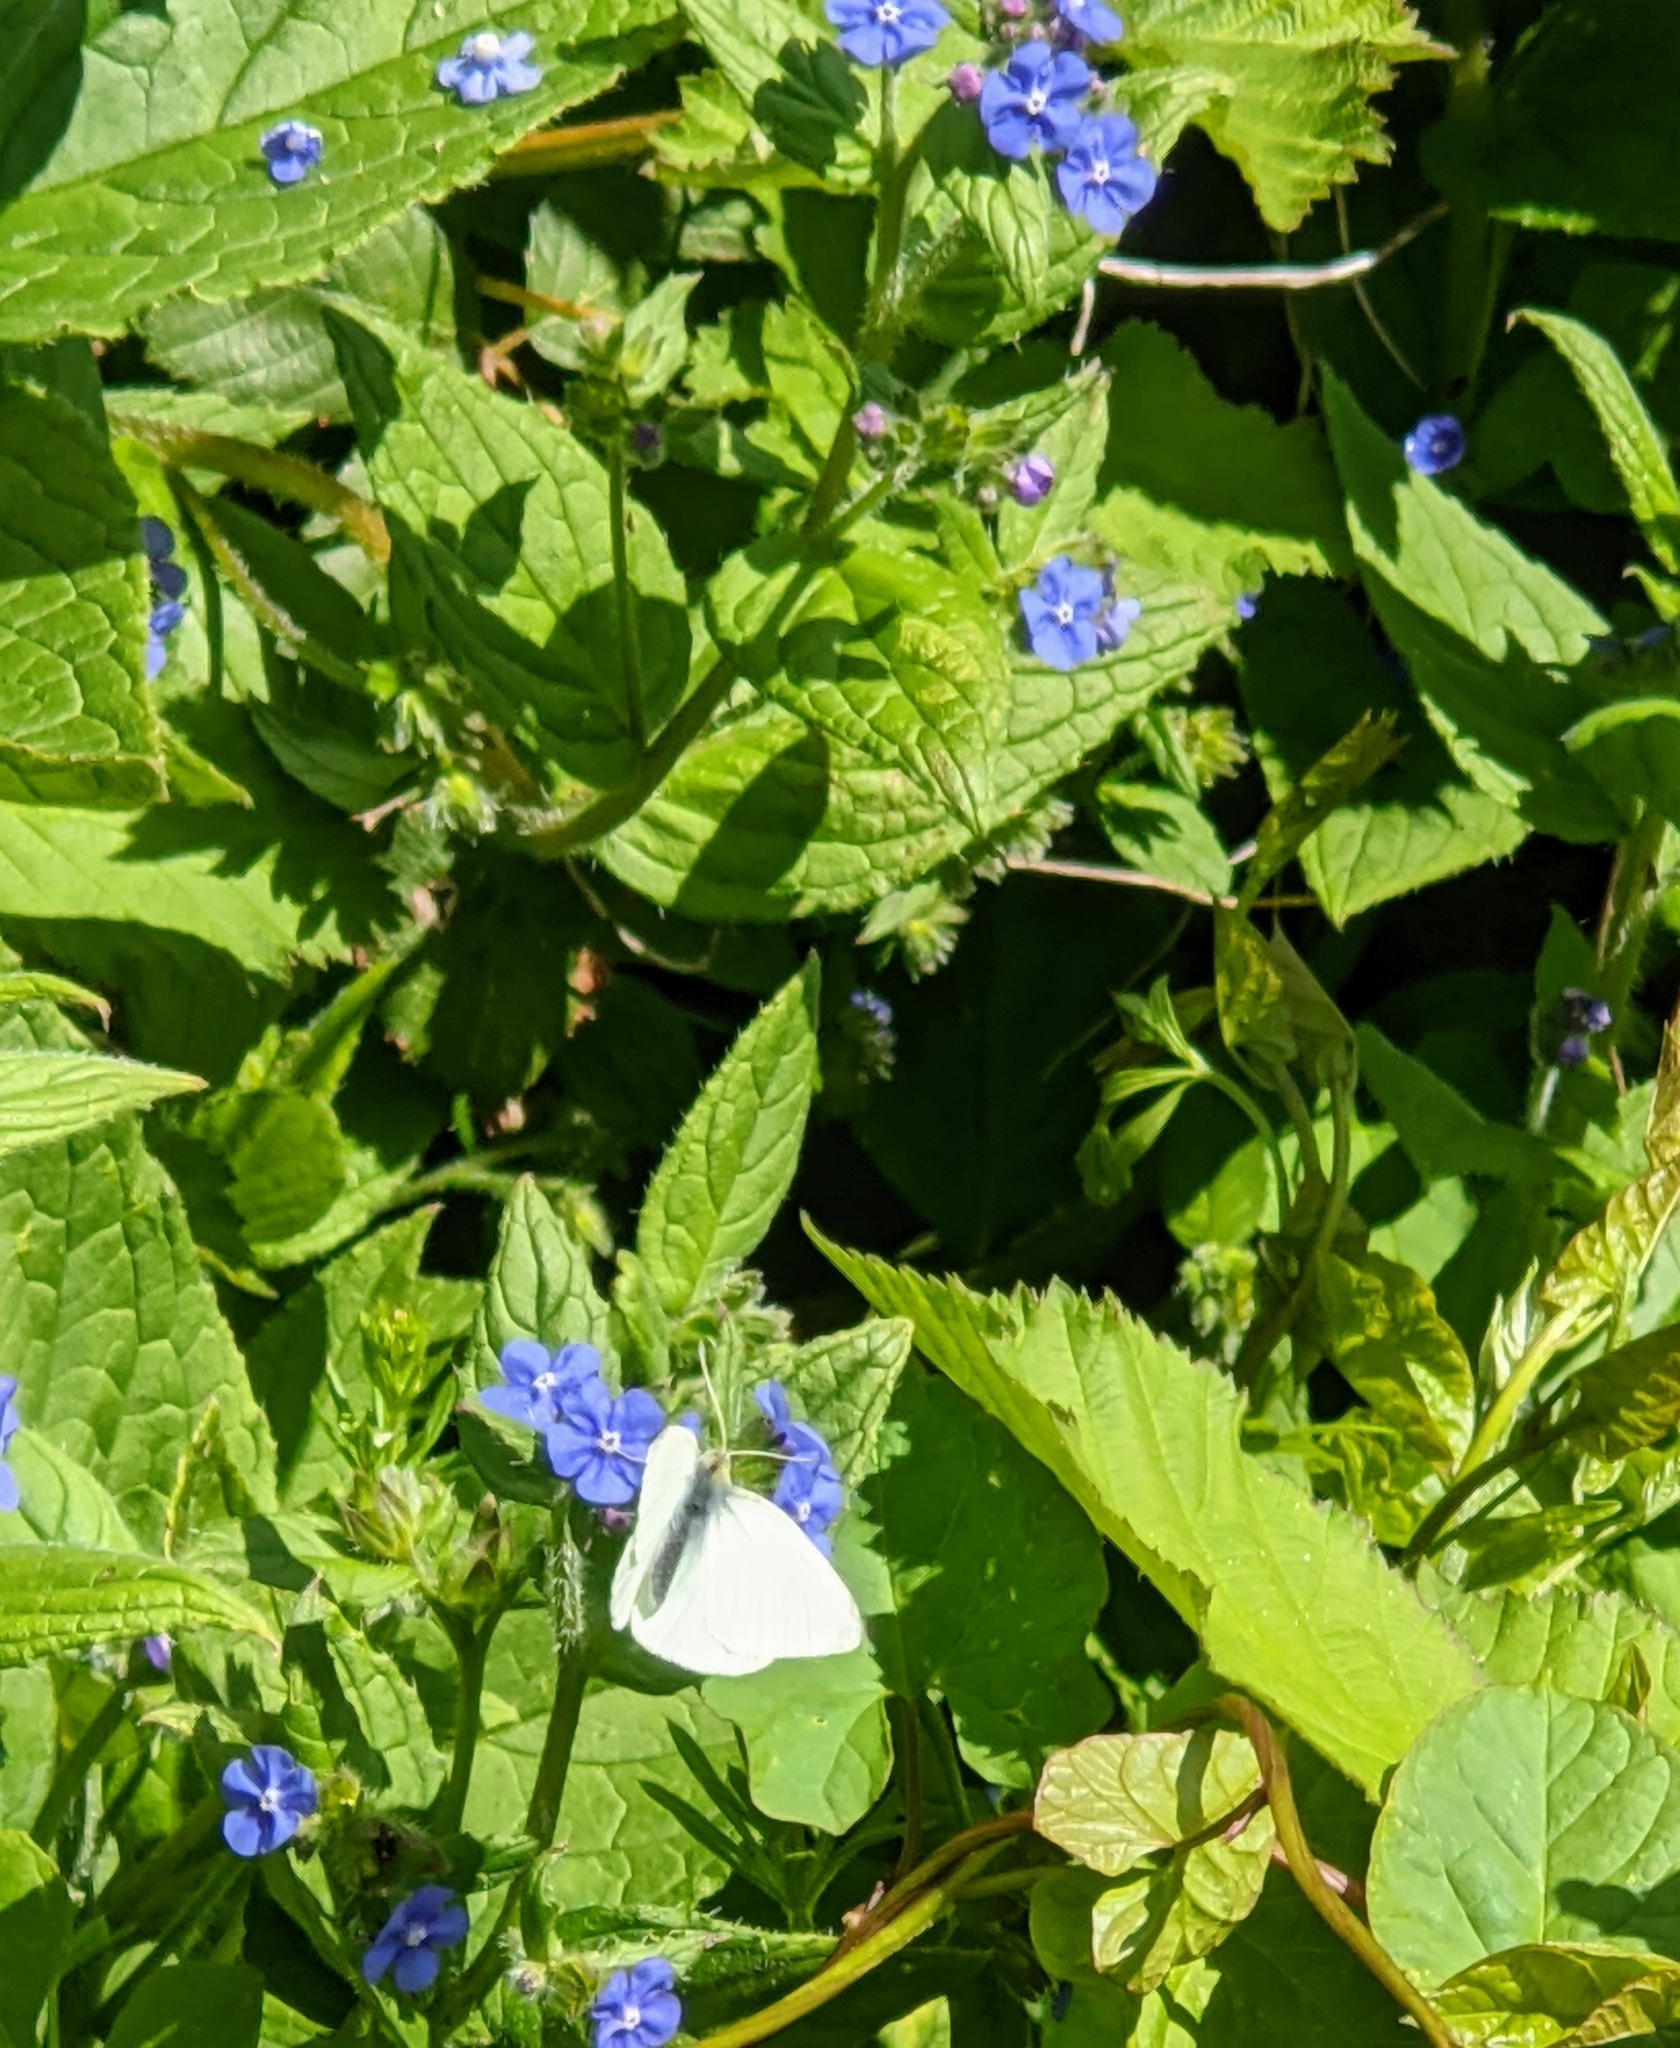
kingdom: Animalia
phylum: Arthropoda
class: Insecta
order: Lepidoptera
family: Pieridae
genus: Pieris
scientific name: Pieris rapae
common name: Small white
